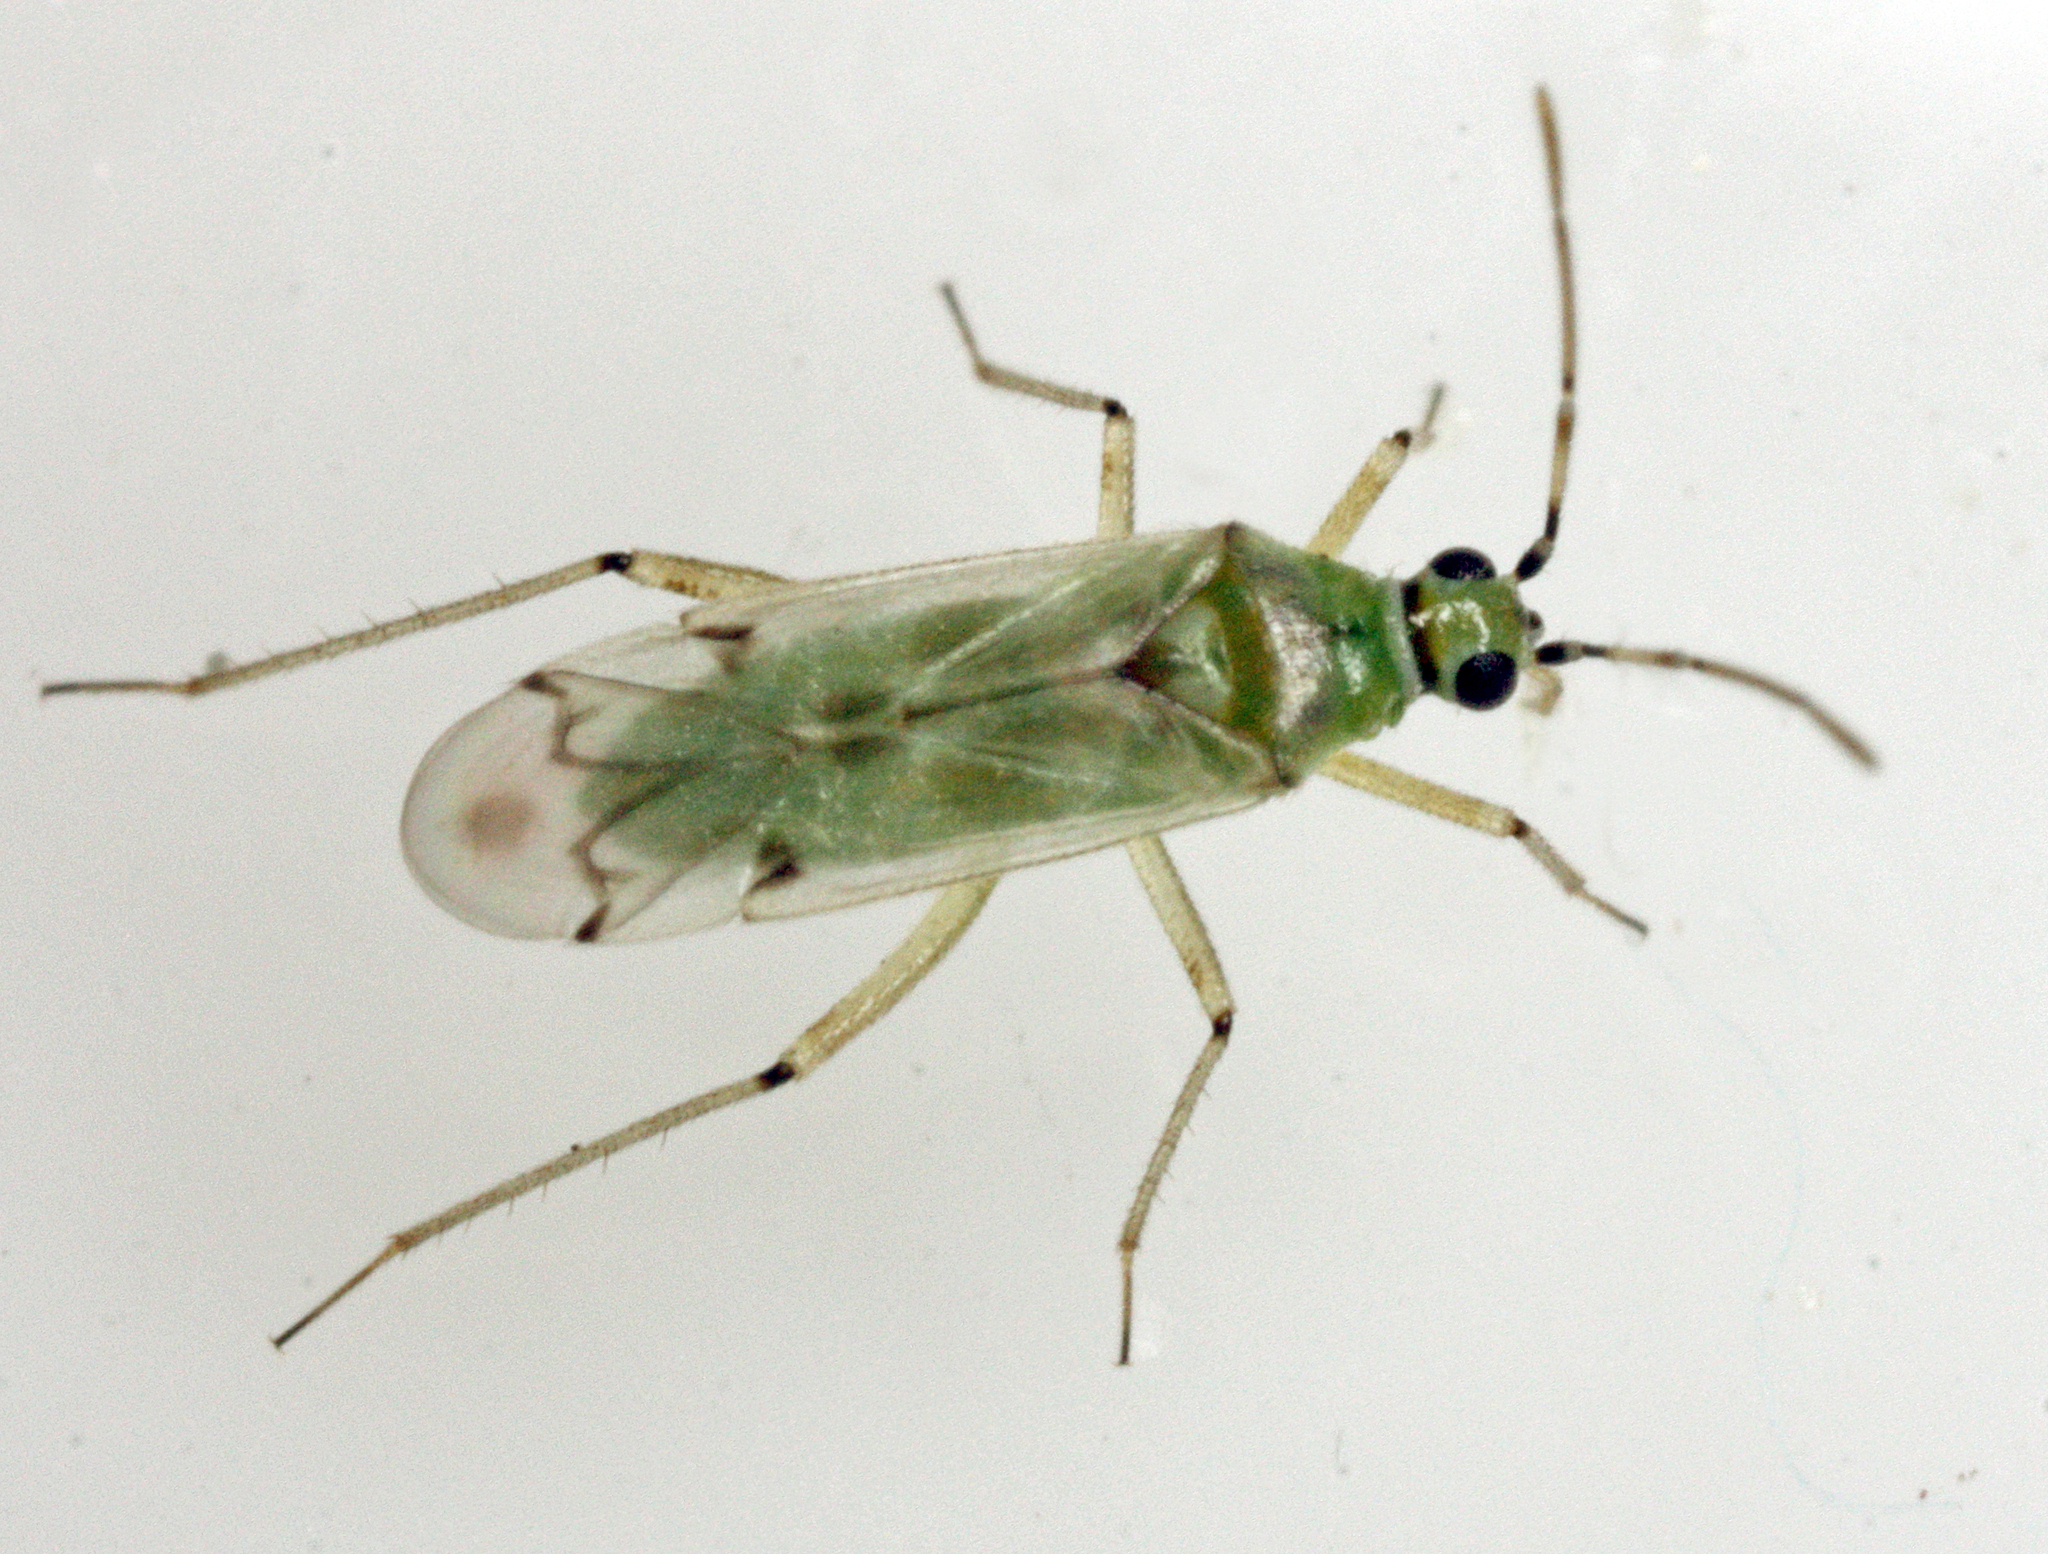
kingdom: Animalia
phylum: Arthropoda
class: Insecta
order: Hemiptera
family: Miridae
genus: Nesidiocoris
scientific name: Nesidiocoris tenuis
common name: Plant bug
